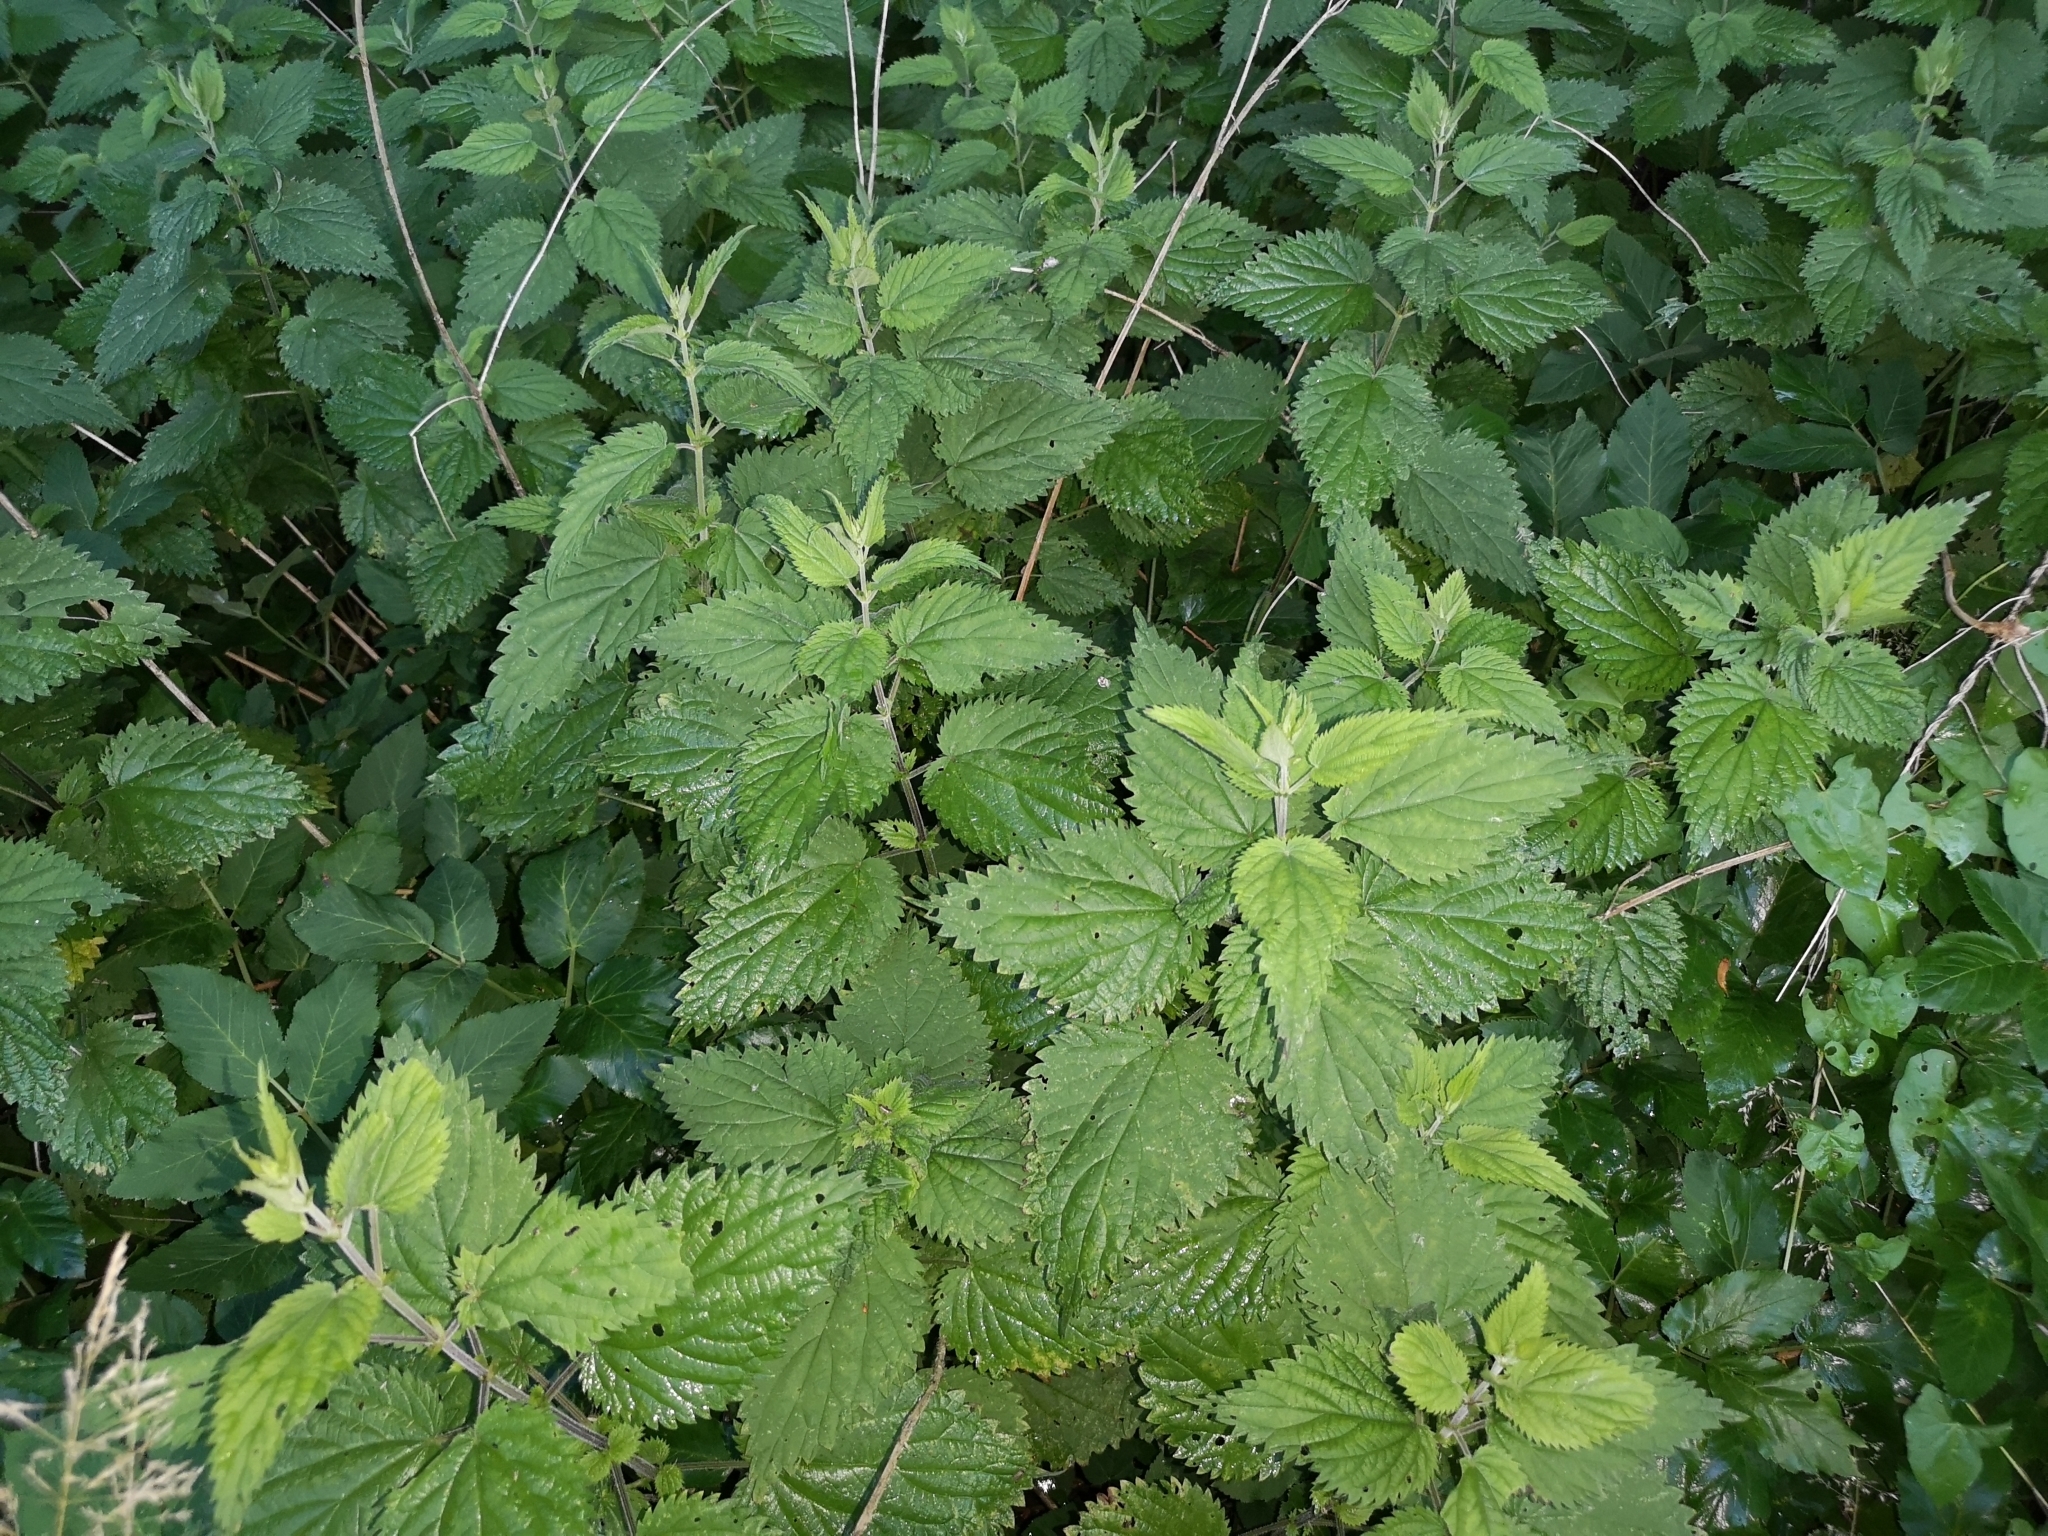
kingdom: Plantae
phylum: Tracheophyta
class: Magnoliopsida
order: Rosales
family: Urticaceae
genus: Urtica
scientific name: Urtica dioica
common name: Common nettle
